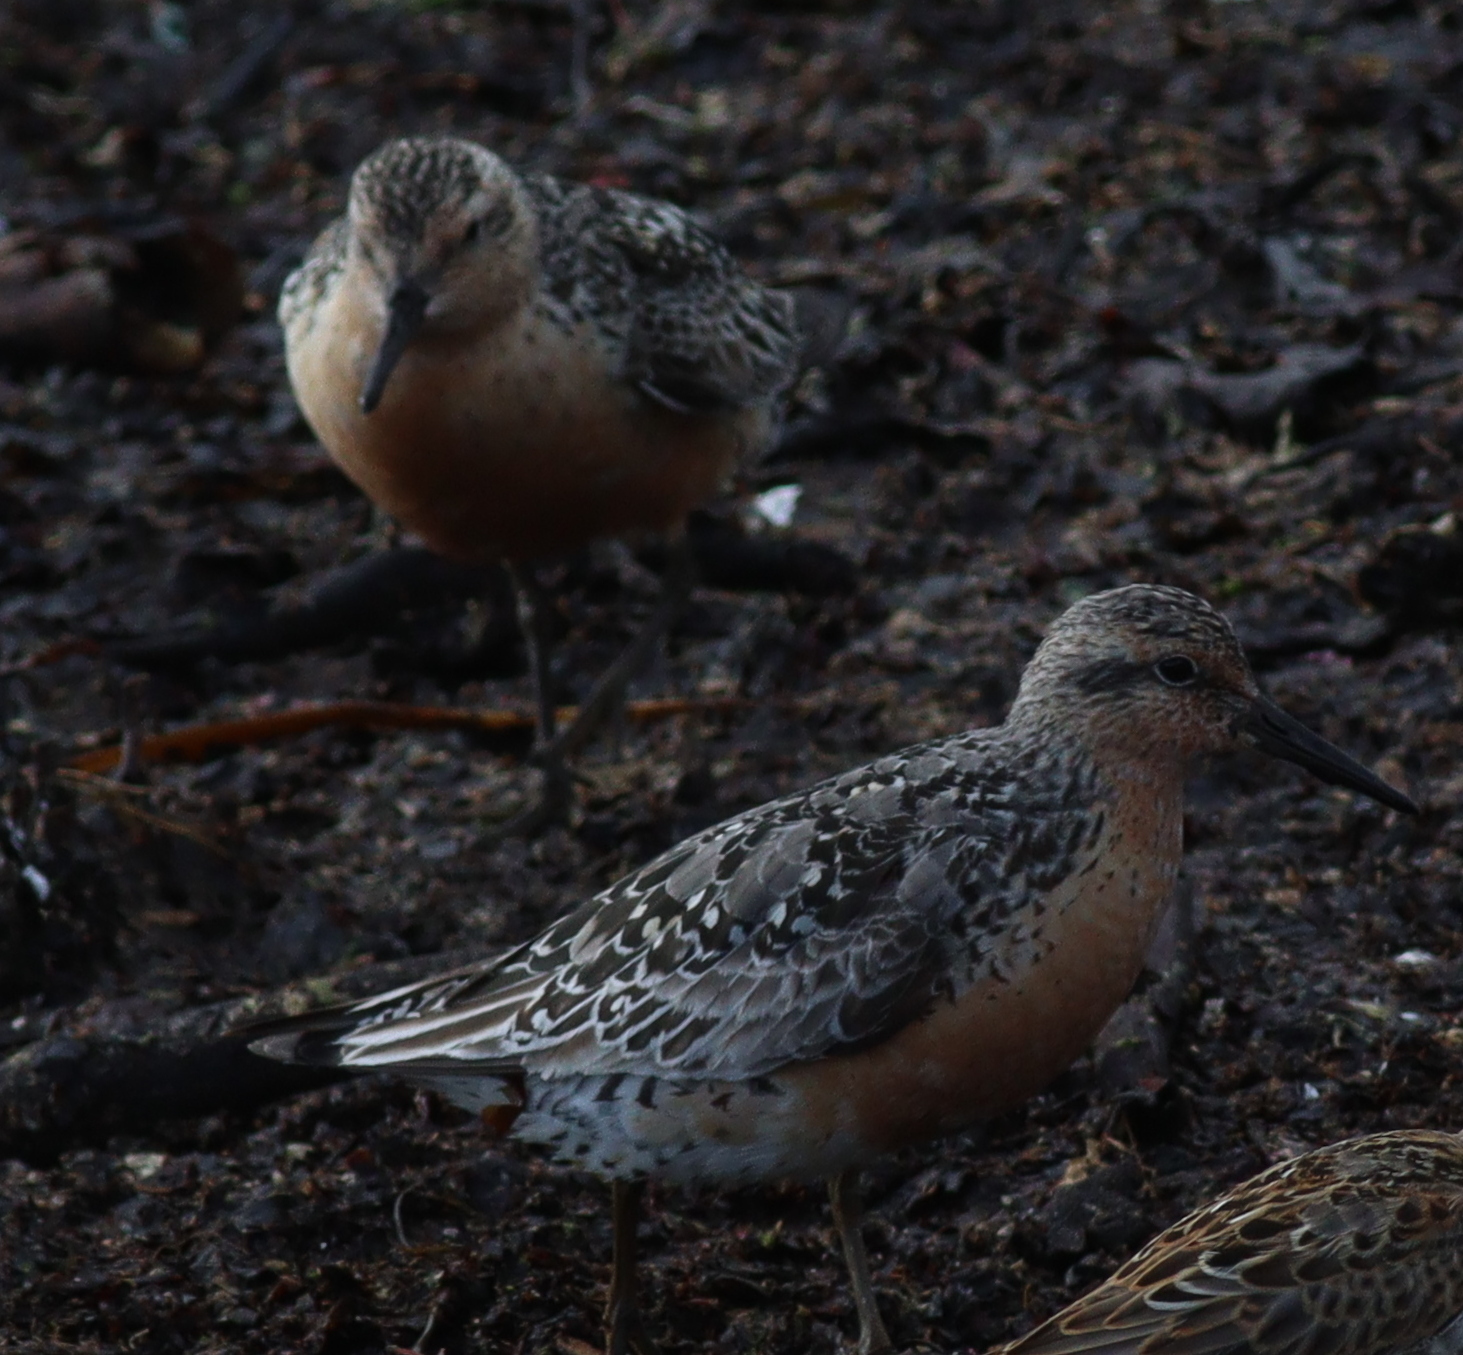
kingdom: Animalia
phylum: Chordata
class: Aves
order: Charadriiformes
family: Scolopacidae
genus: Calidris
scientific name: Calidris canutus
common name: Red knot
